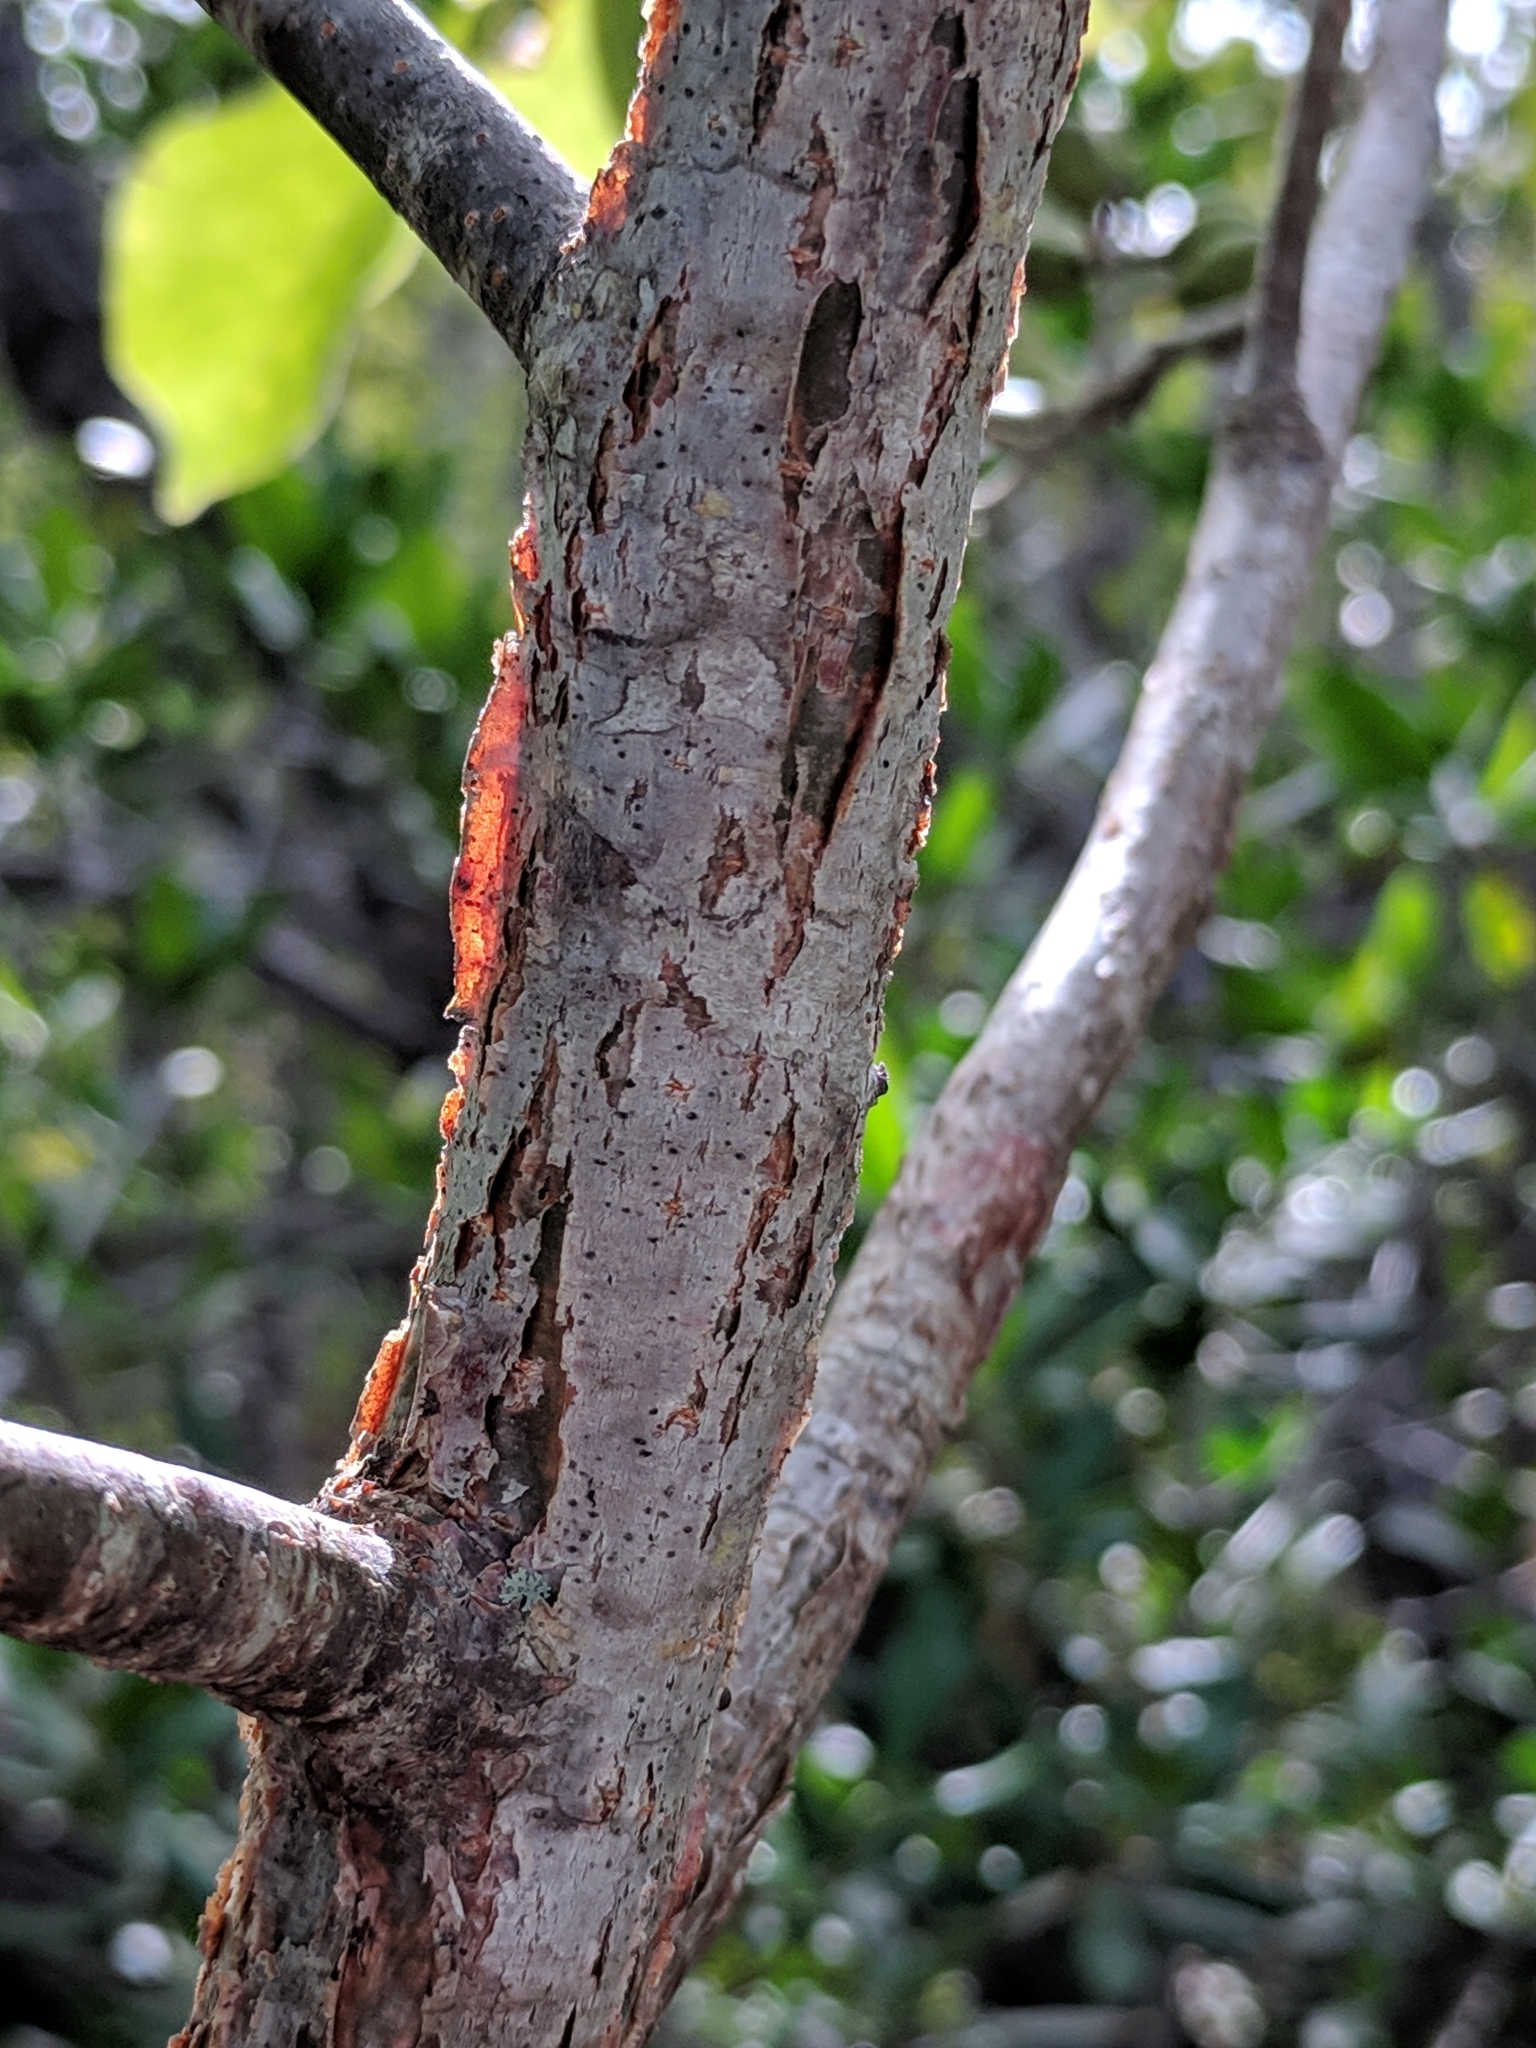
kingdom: Plantae
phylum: Tracheophyta
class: Magnoliopsida
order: Sapindales
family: Burseraceae
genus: Bursera
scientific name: Bursera simaruba
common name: Turpentine tree
